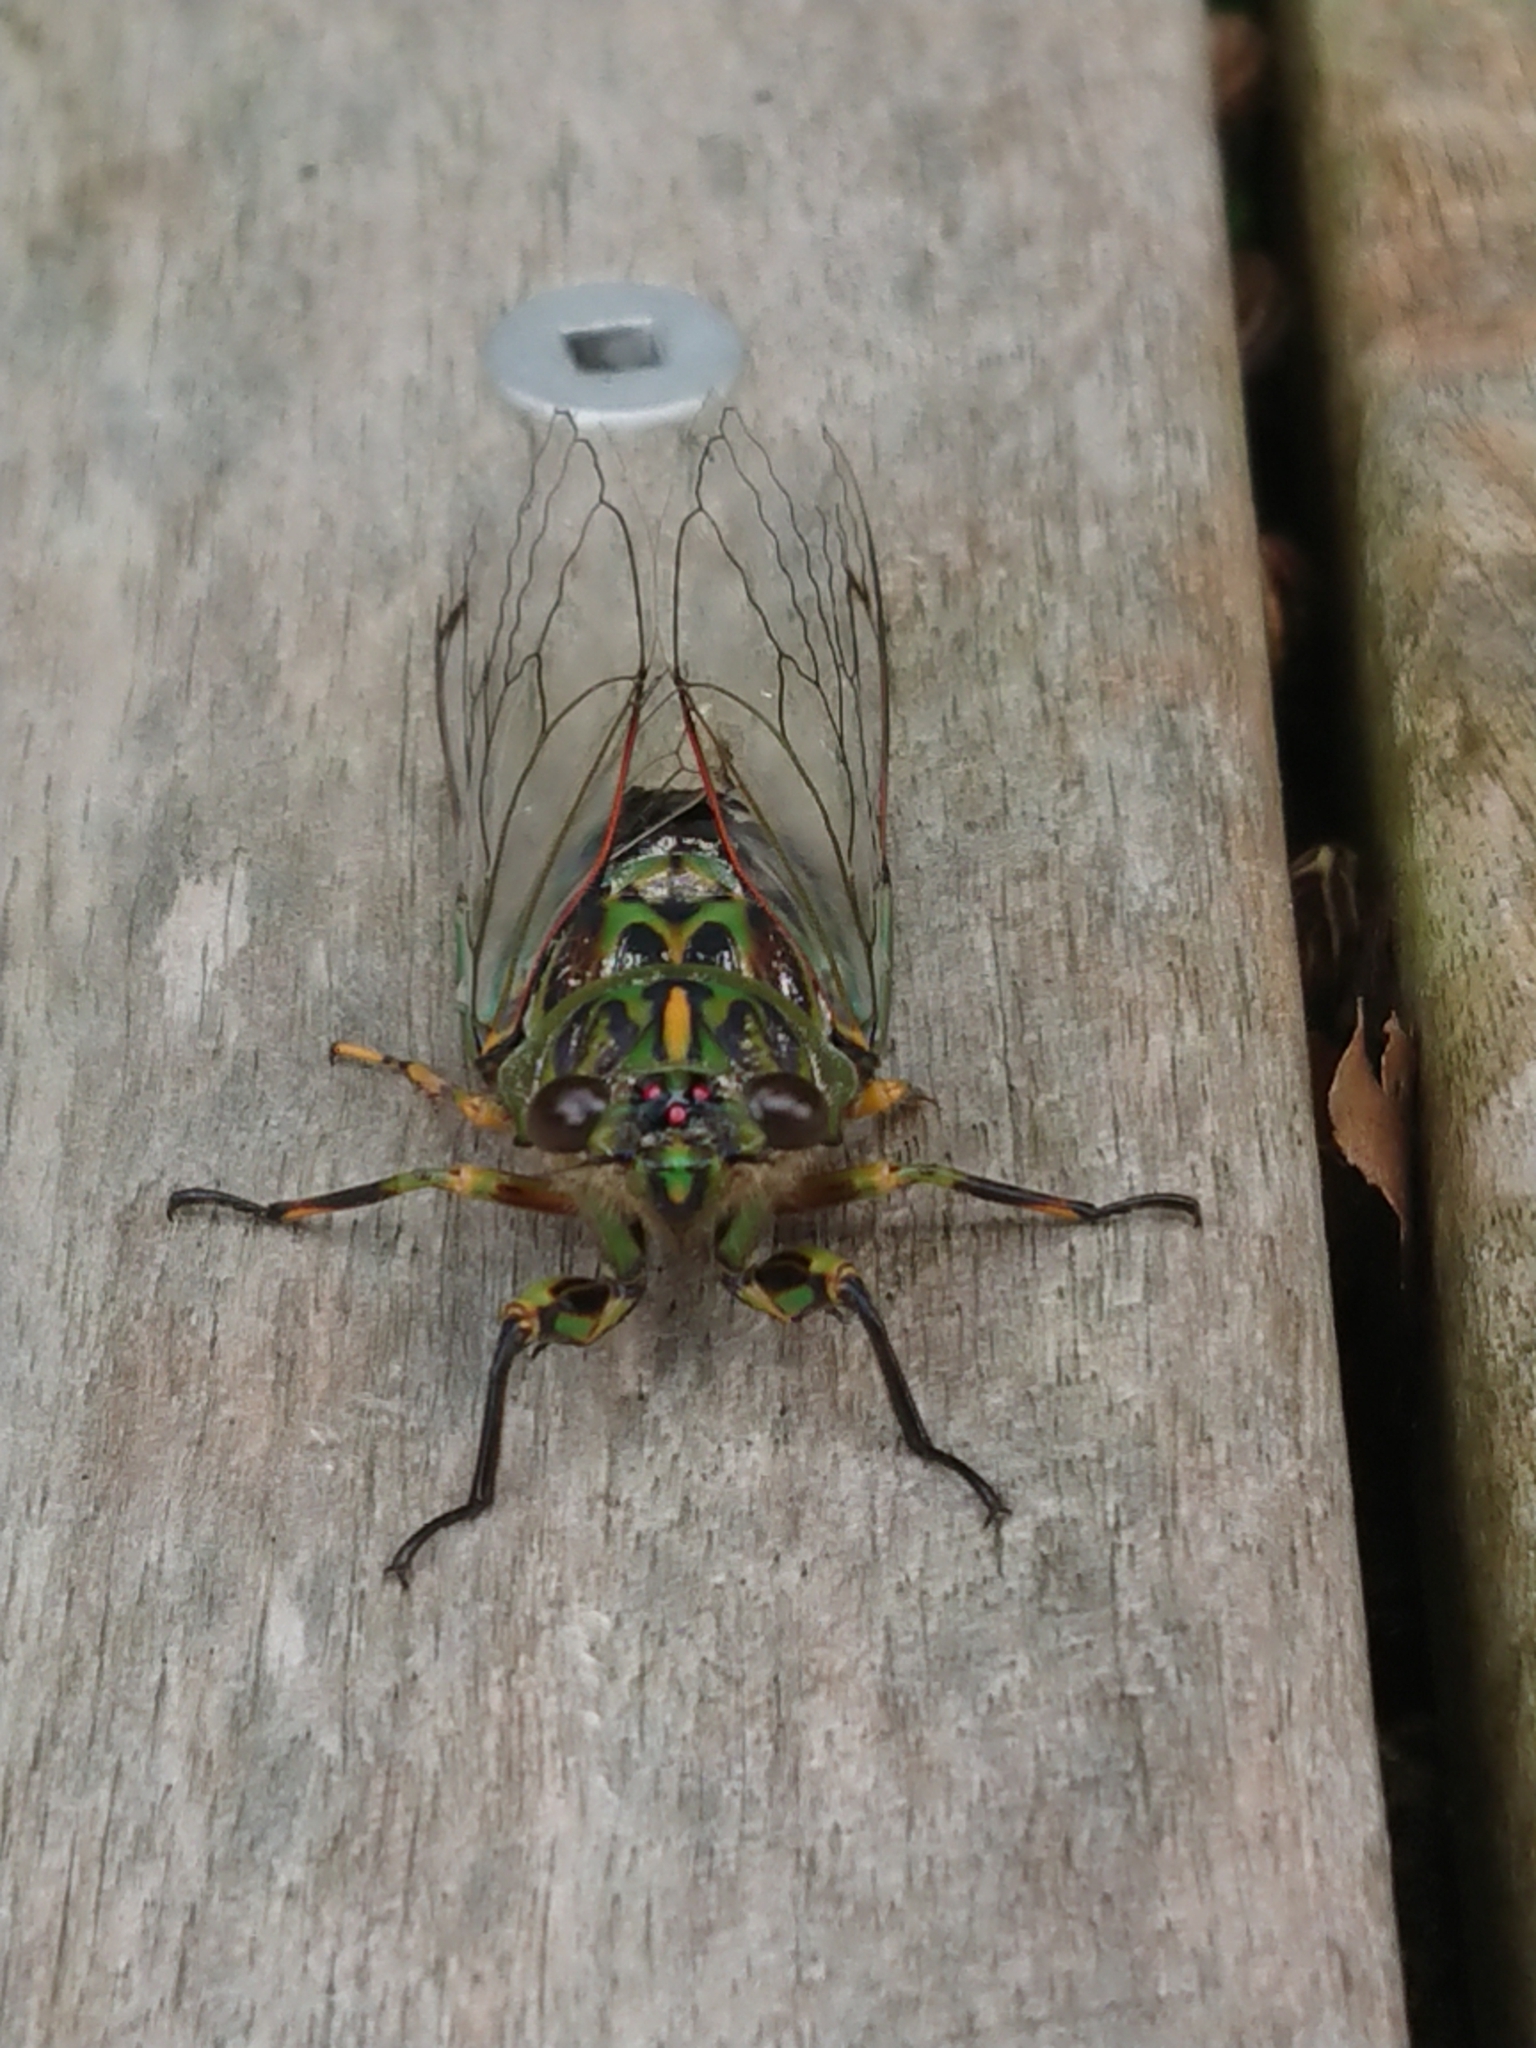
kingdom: Animalia
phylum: Arthropoda
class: Insecta
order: Hemiptera
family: Cicadidae
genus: Amphipsalta
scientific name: Amphipsalta zelandica
